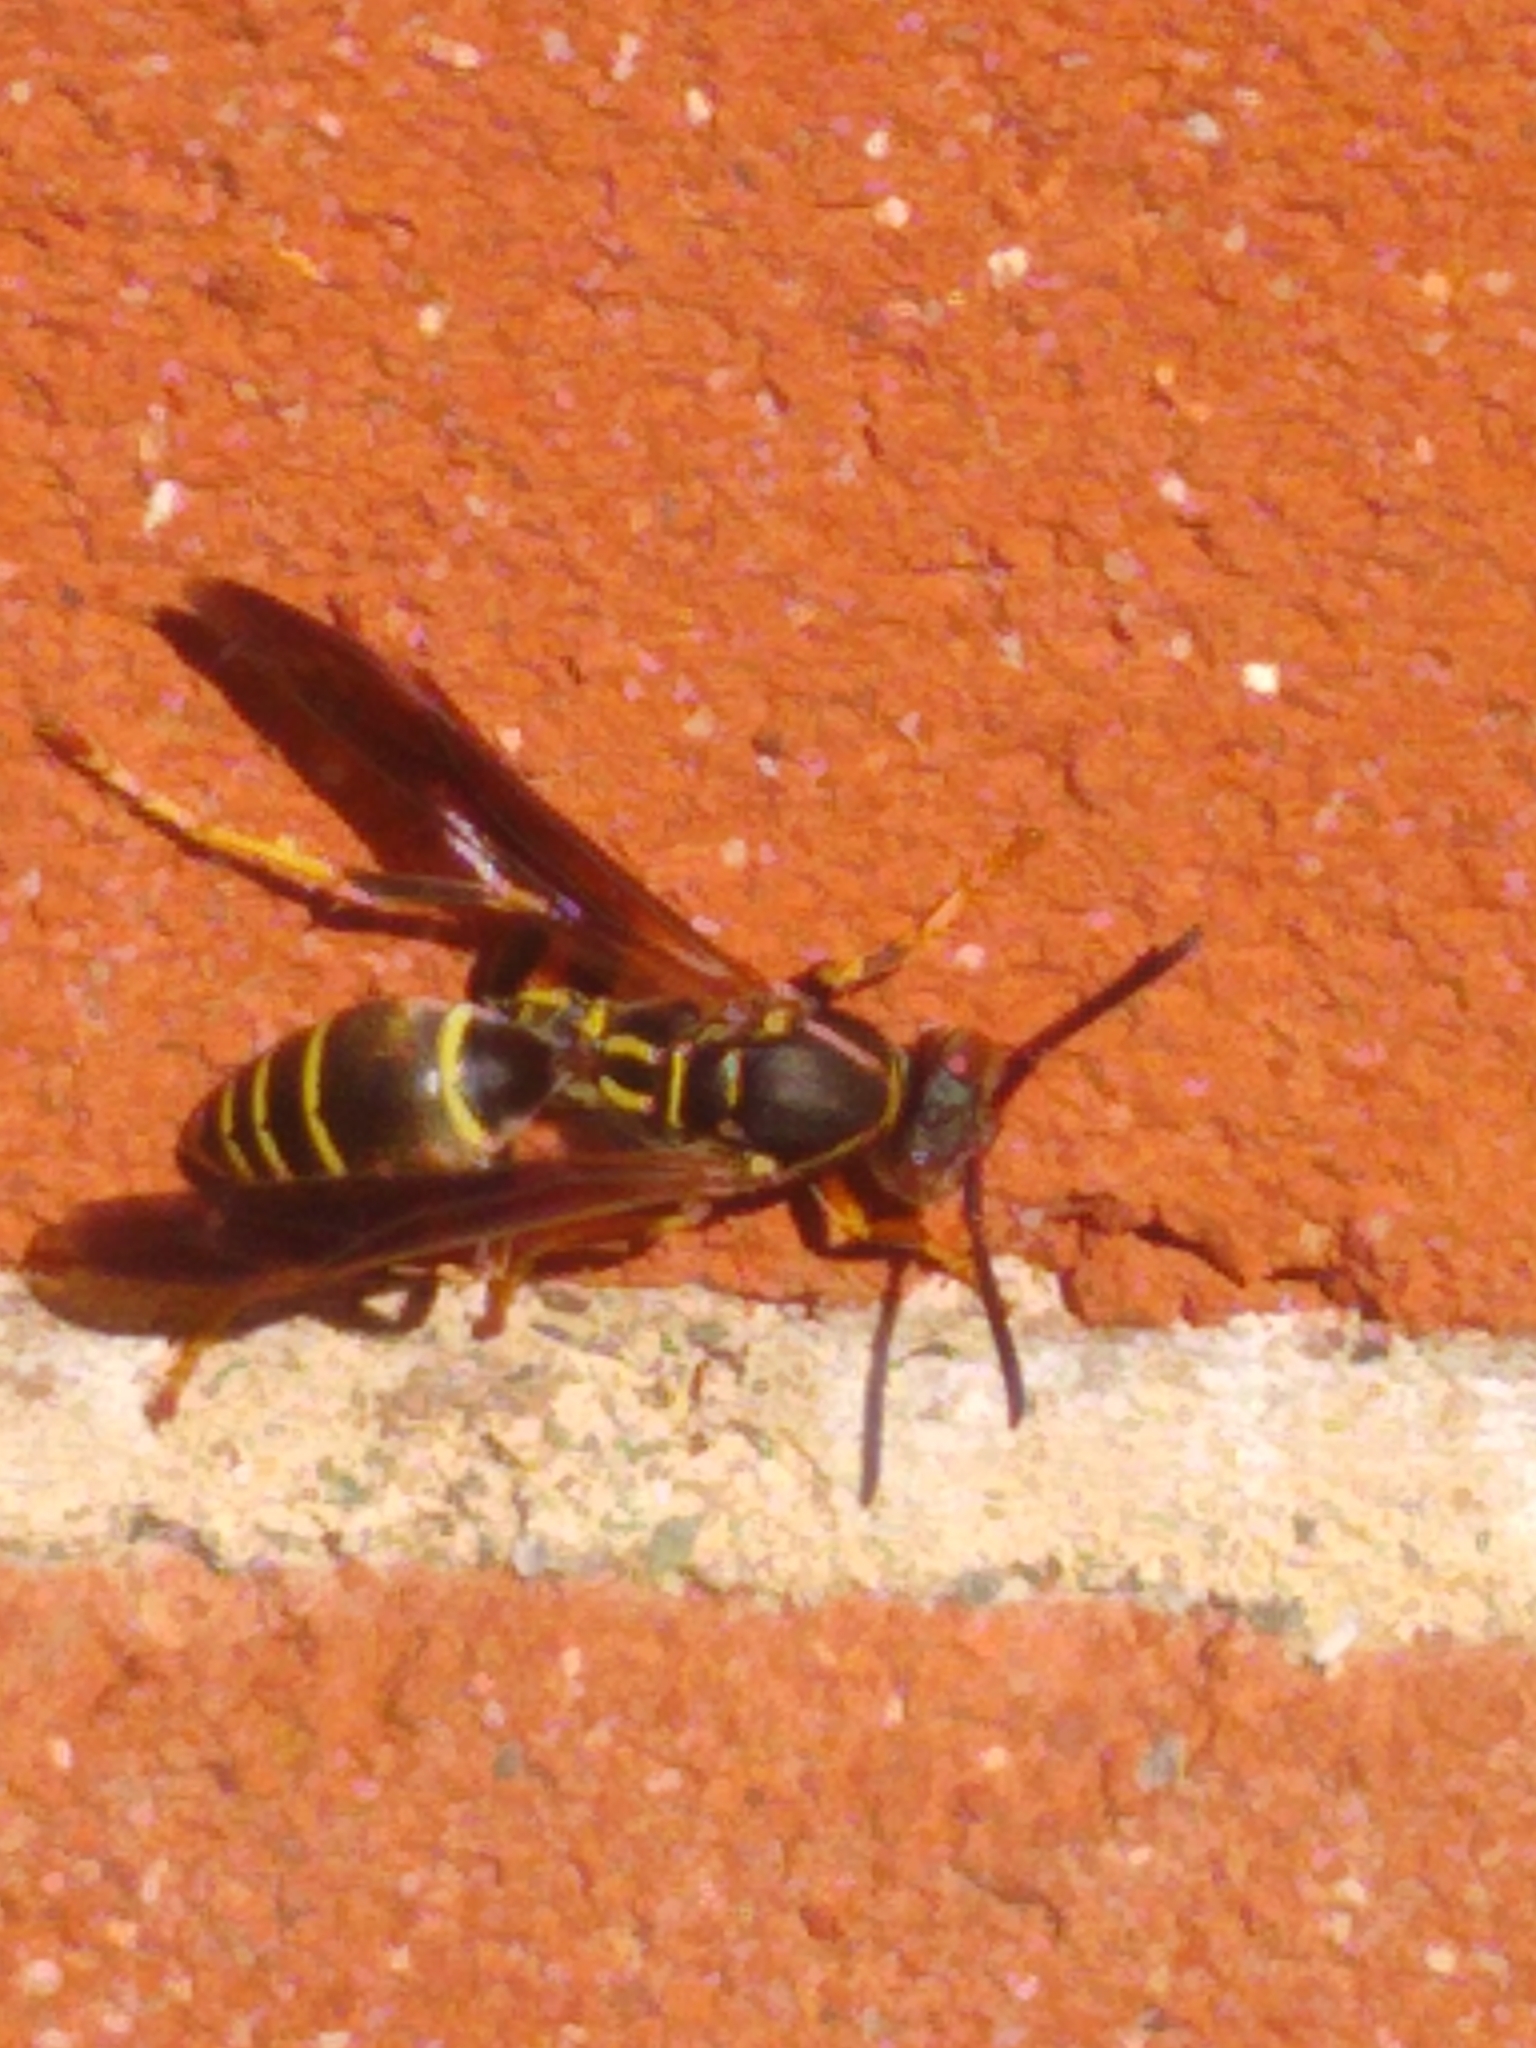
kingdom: Animalia
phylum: Arthropoda
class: Insecta
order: Hymenoptera
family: Eumenidae
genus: Polistes
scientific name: Polistes fuscatus
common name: Dark paper wasp
